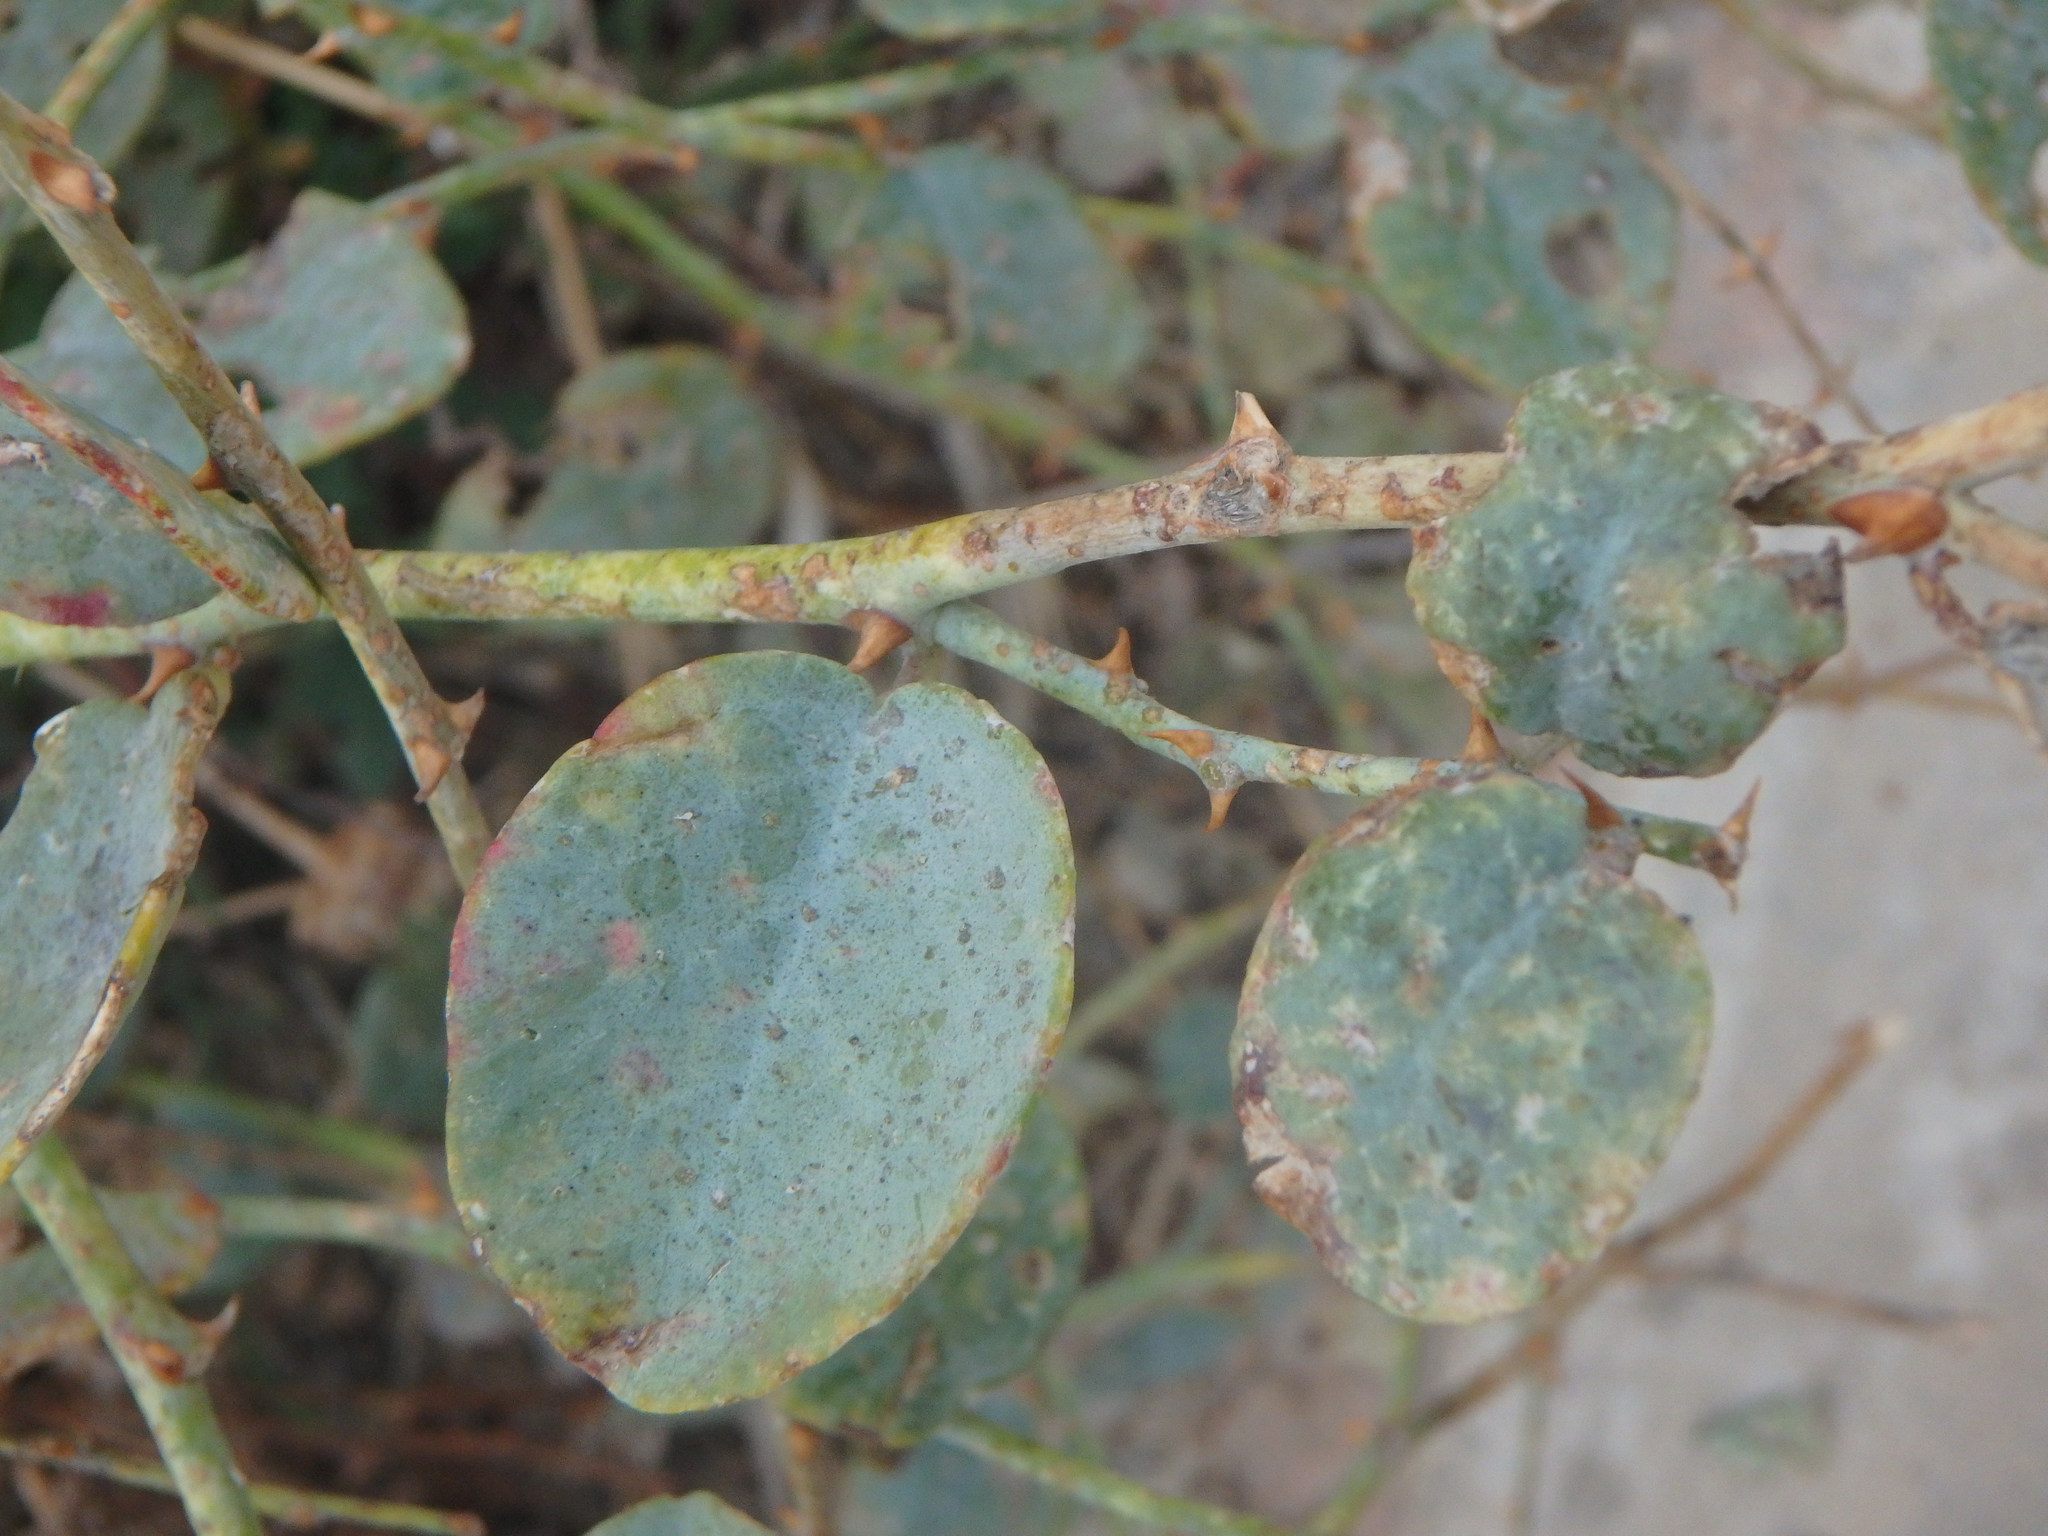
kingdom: Plantae
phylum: Tracheophyta
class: Magnoliopsida
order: Brassicales
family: Capparaceae
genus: Capparis
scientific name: Capparis spinosa
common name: Caper
